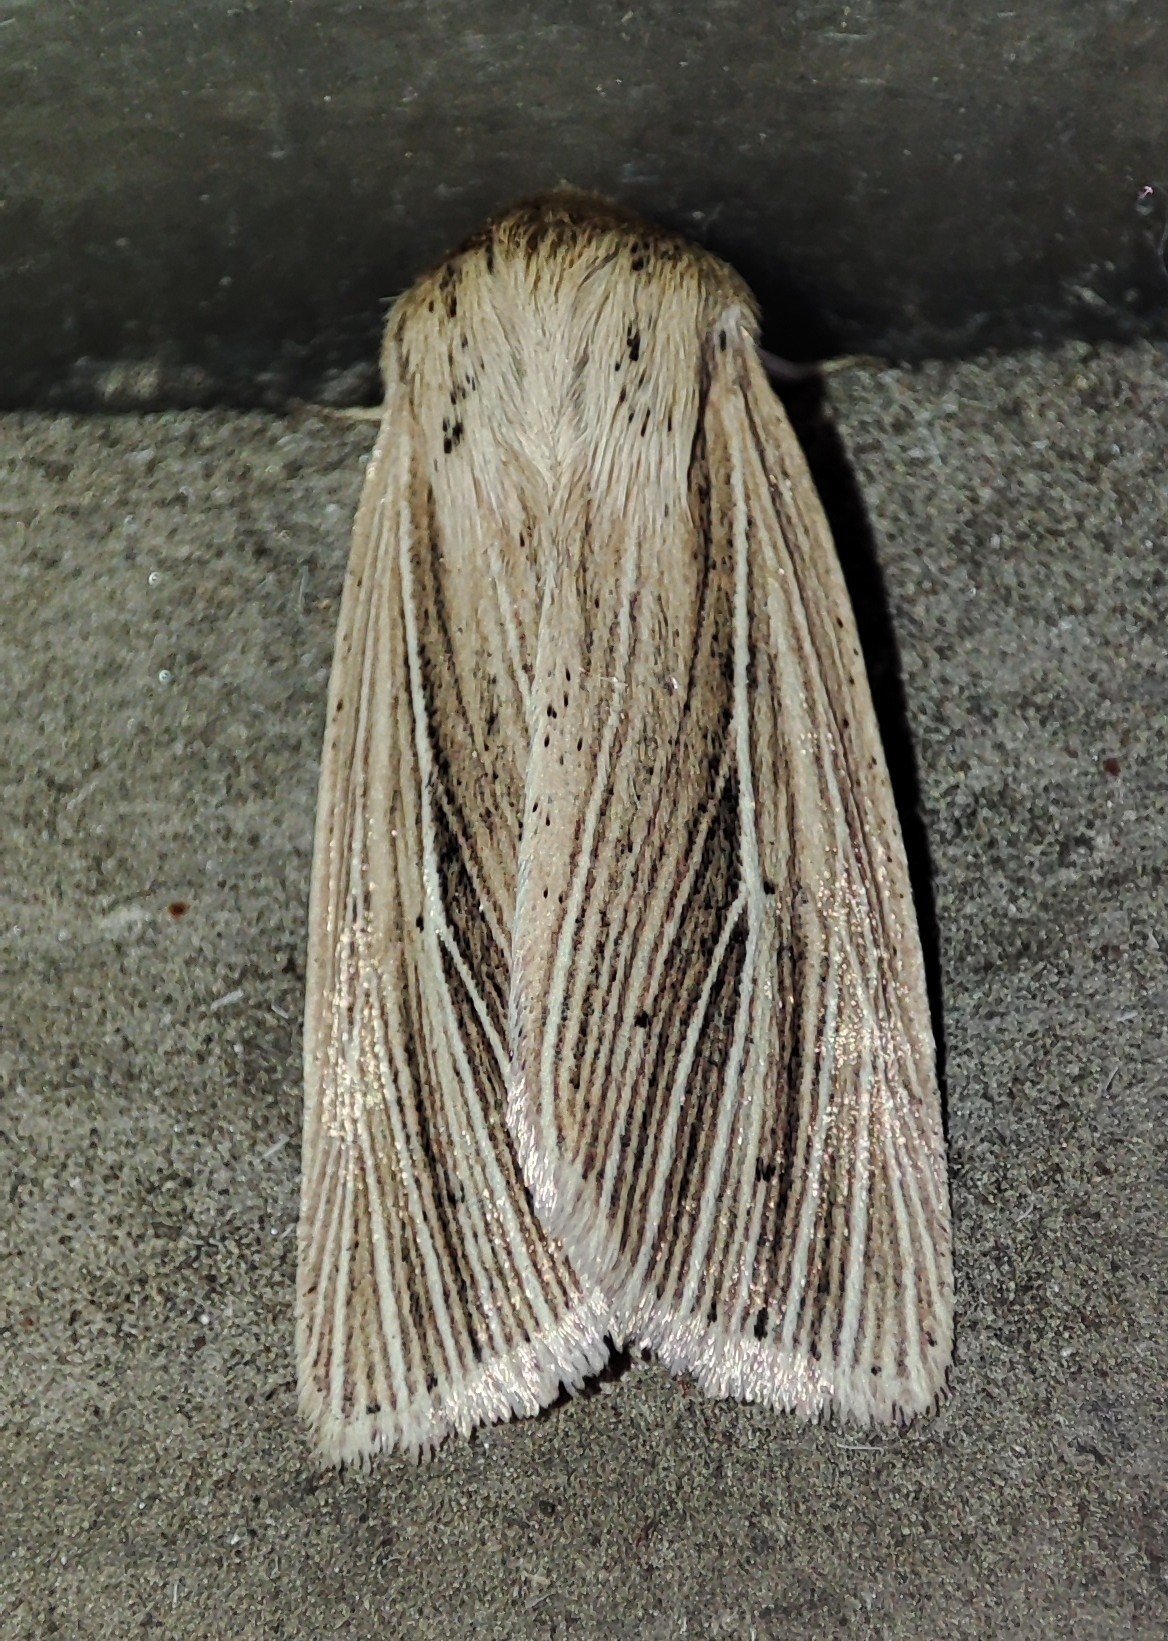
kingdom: Animalia
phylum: Arthropoda
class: Insecta
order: Lepidoptera
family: Noctuidae
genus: Mythimna
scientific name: Mythimna impura
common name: Smoky wainscot
